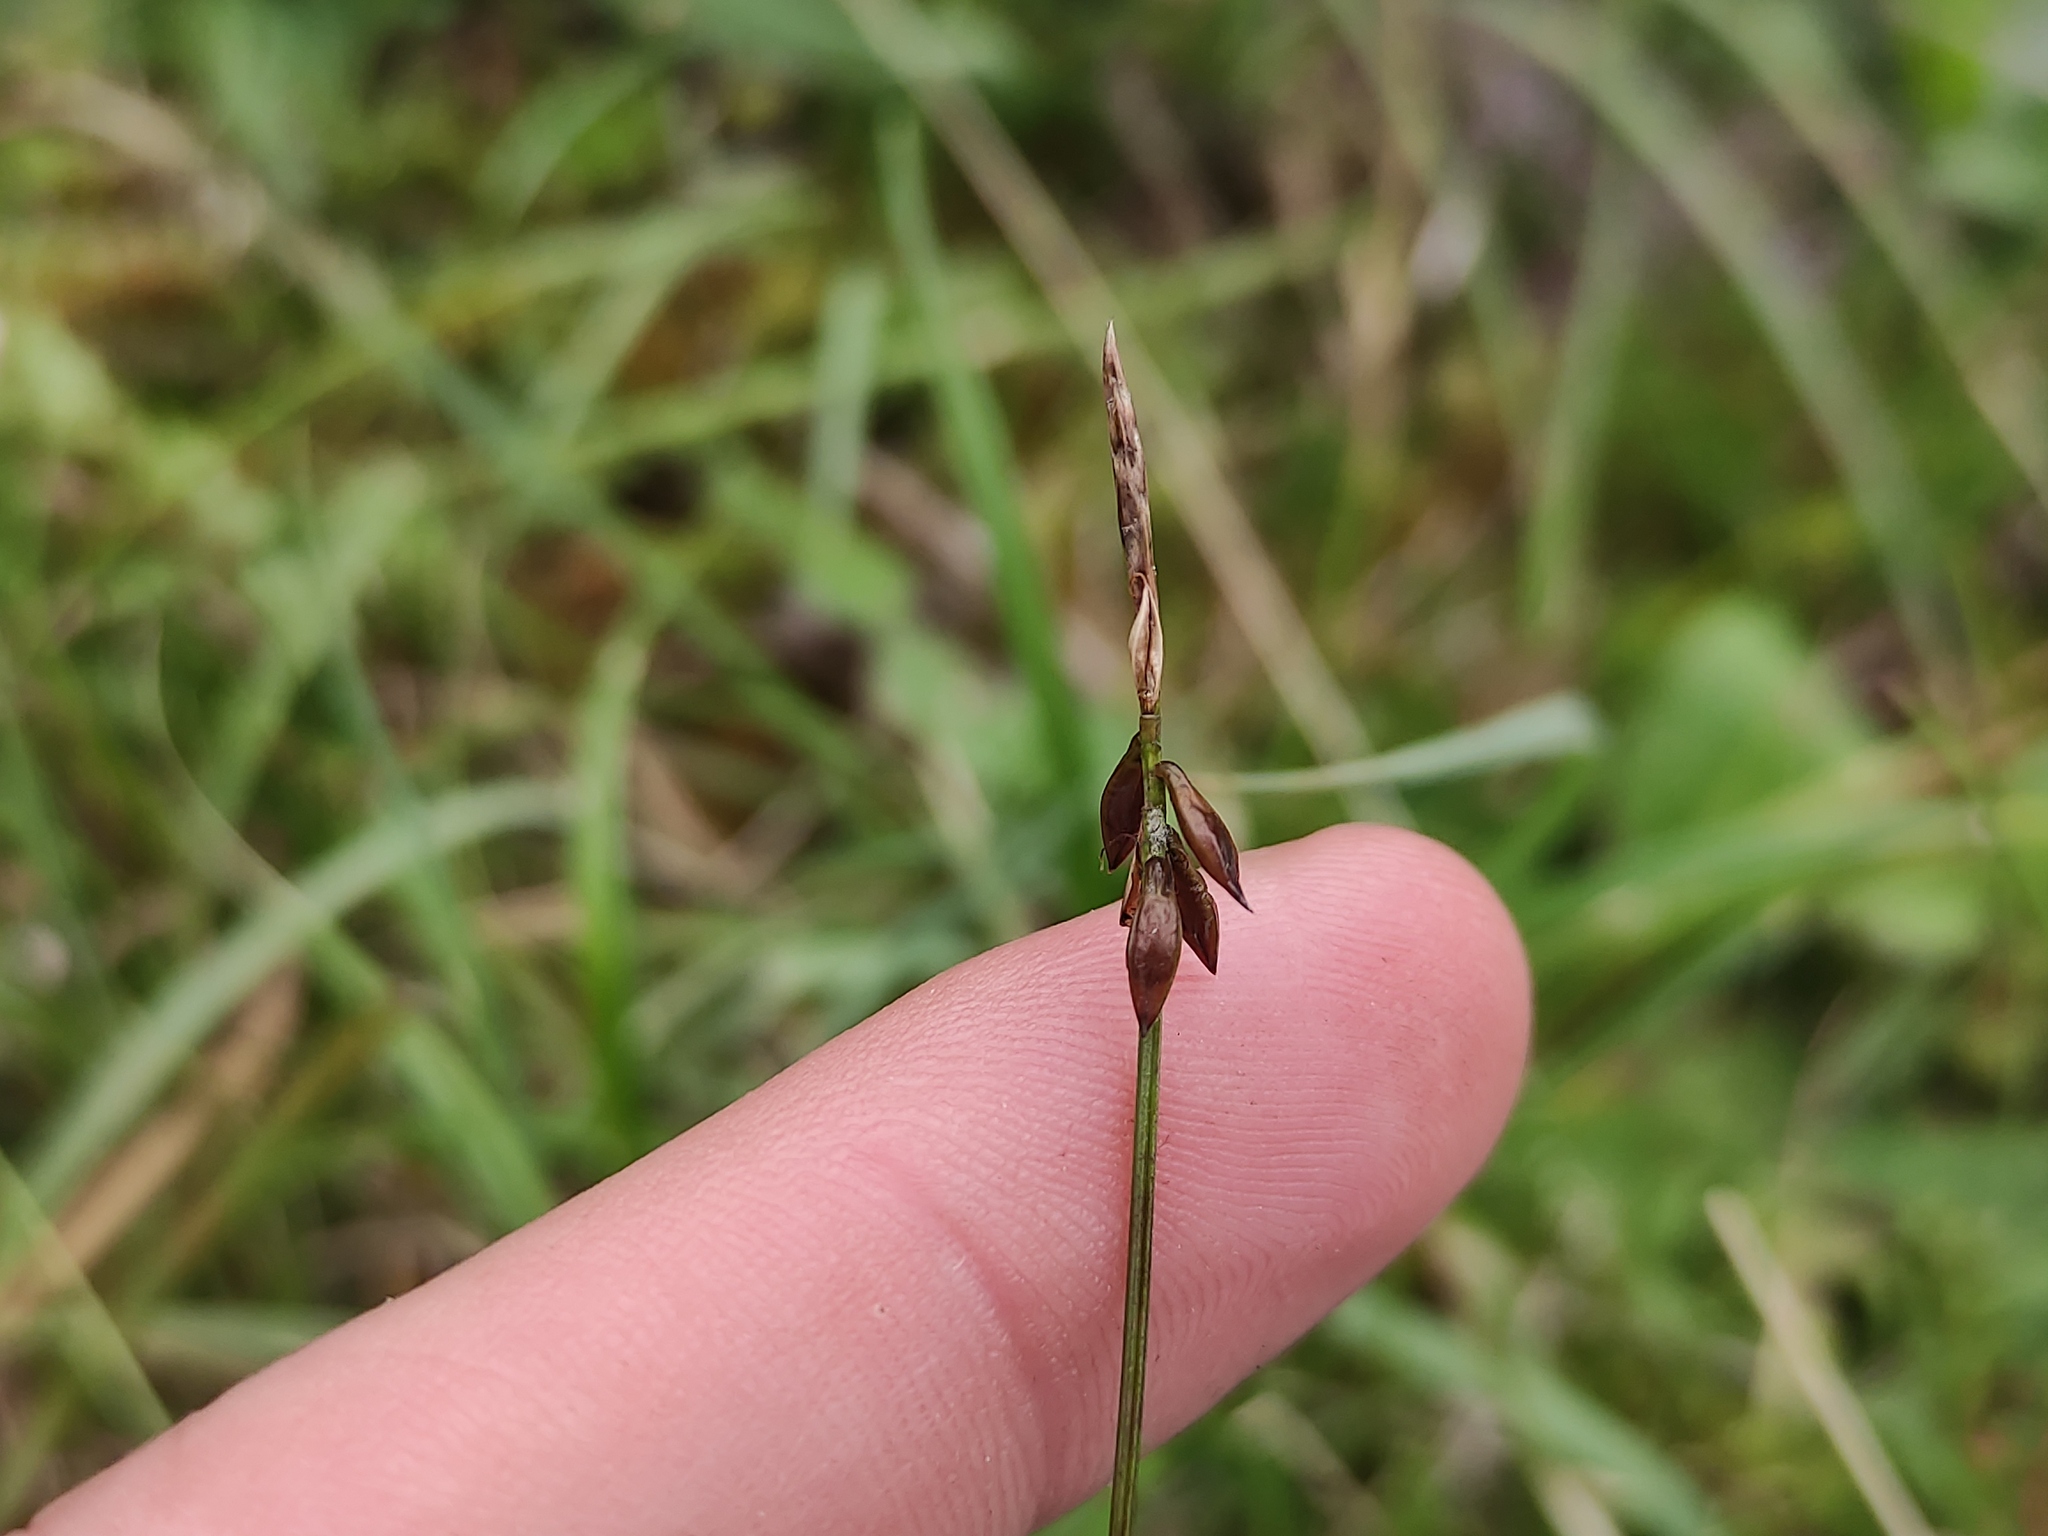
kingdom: Plantae
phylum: Tracheophyta
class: Liliopsida
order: Poales
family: Cyperaceae
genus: Carex
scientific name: Carex pulicaris
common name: Flea sedge
